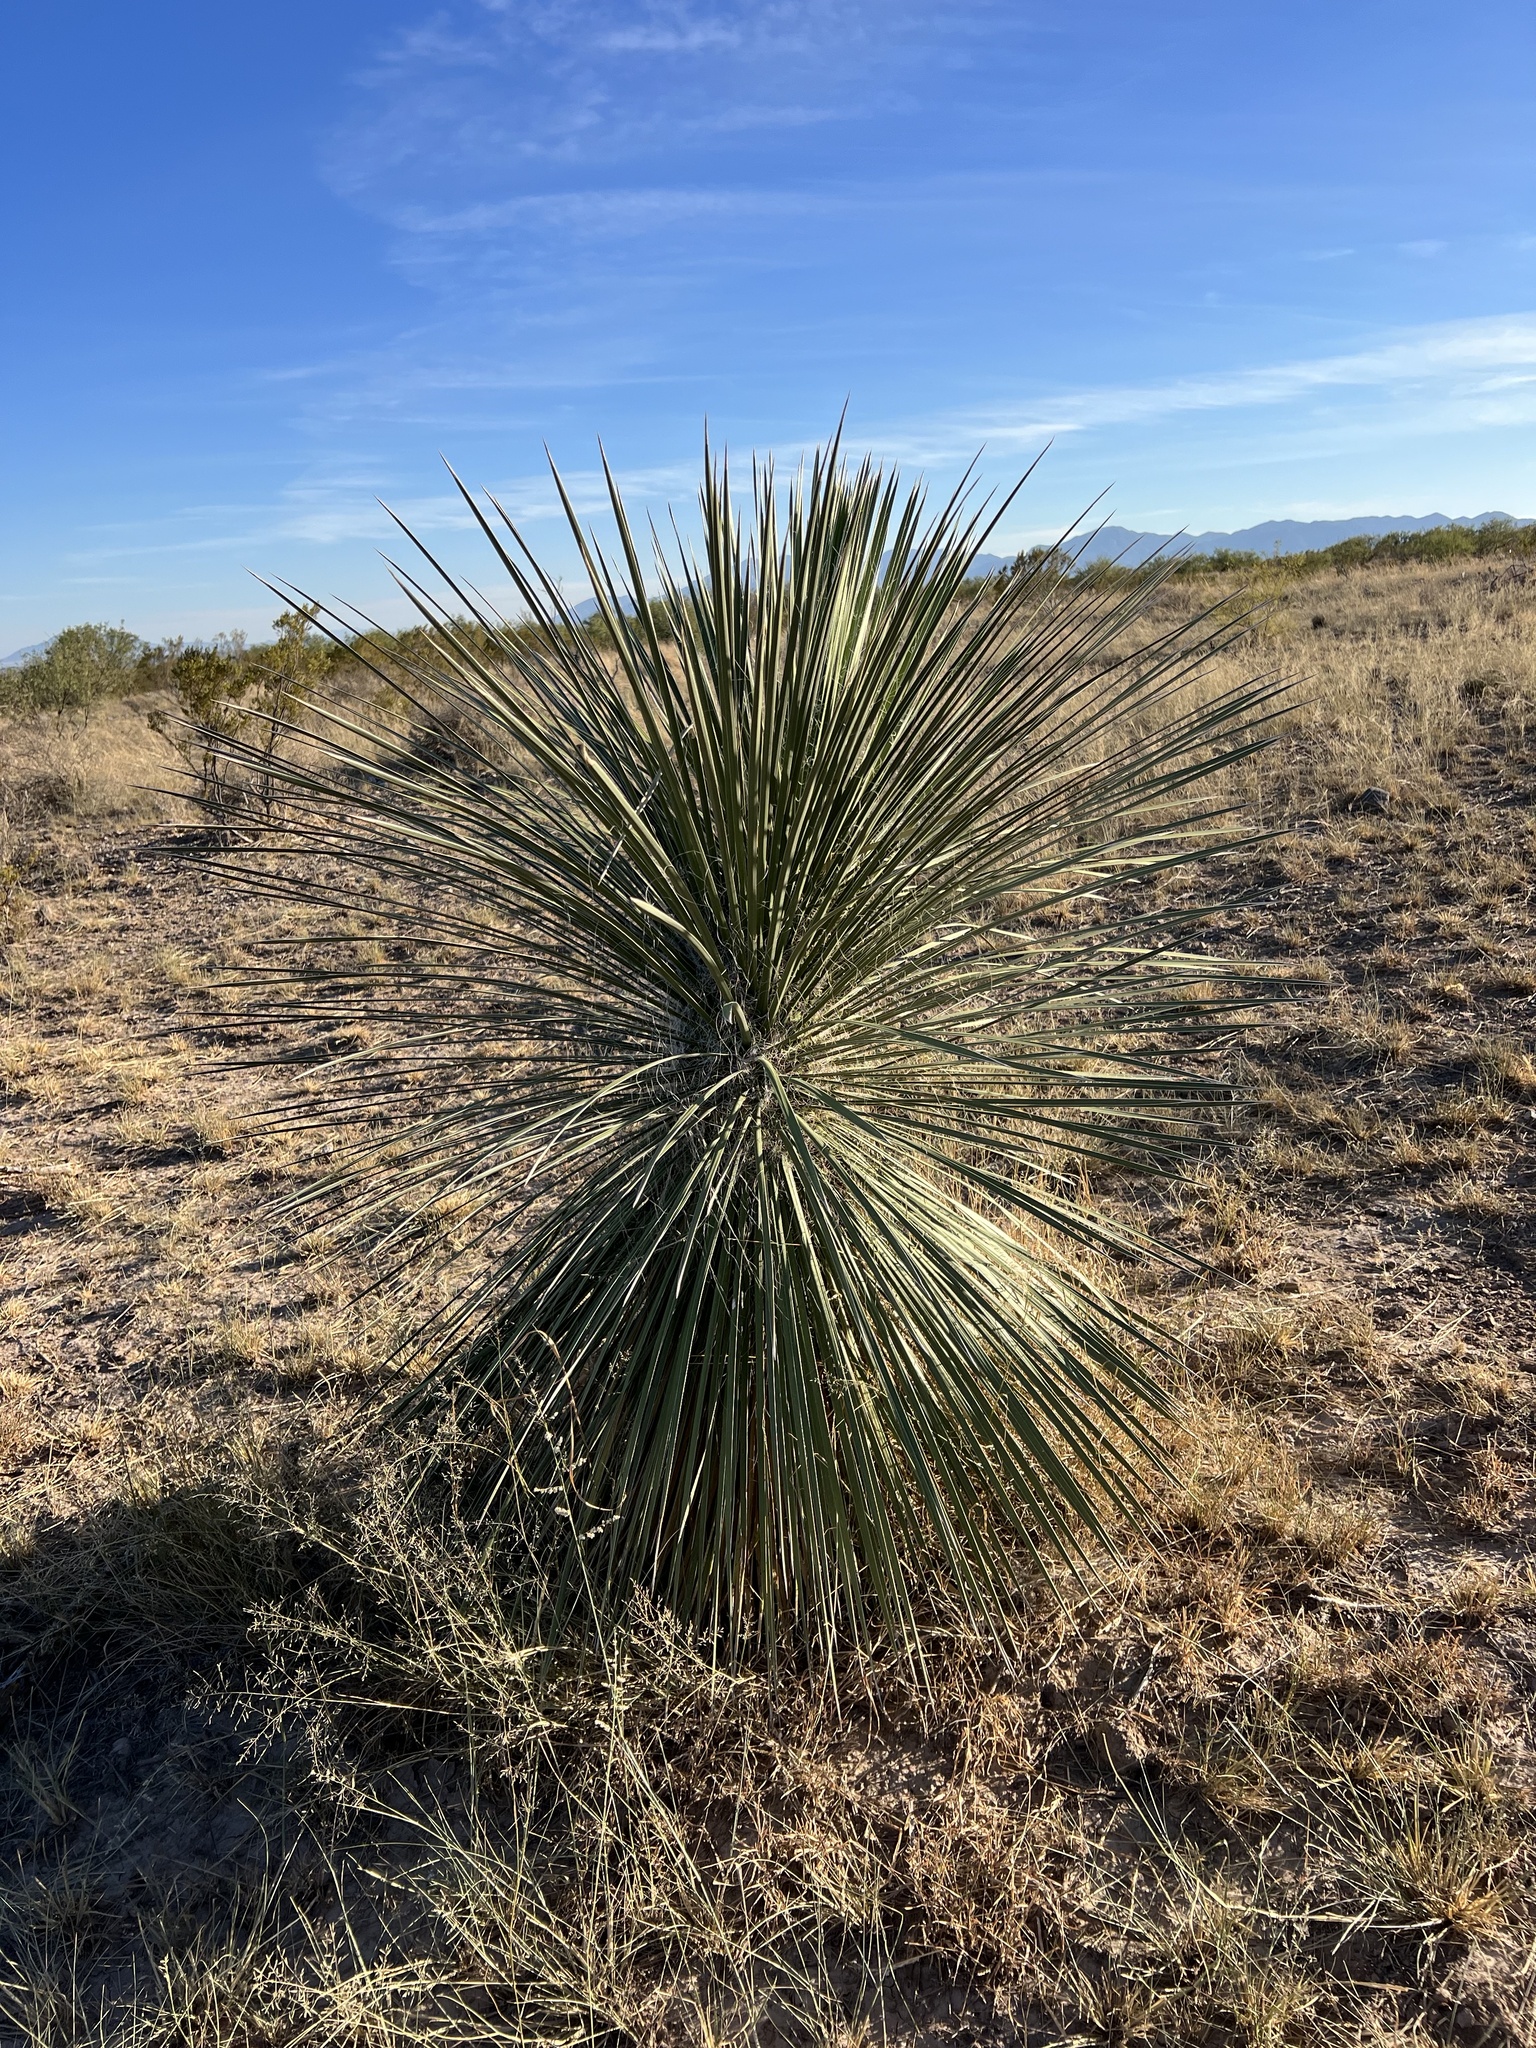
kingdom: Plantae
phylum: Tracheophyta
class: Liliopsida
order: Asparagales
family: Asparagaceae
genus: Yucca
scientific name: Yucca elata
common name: Palmella
